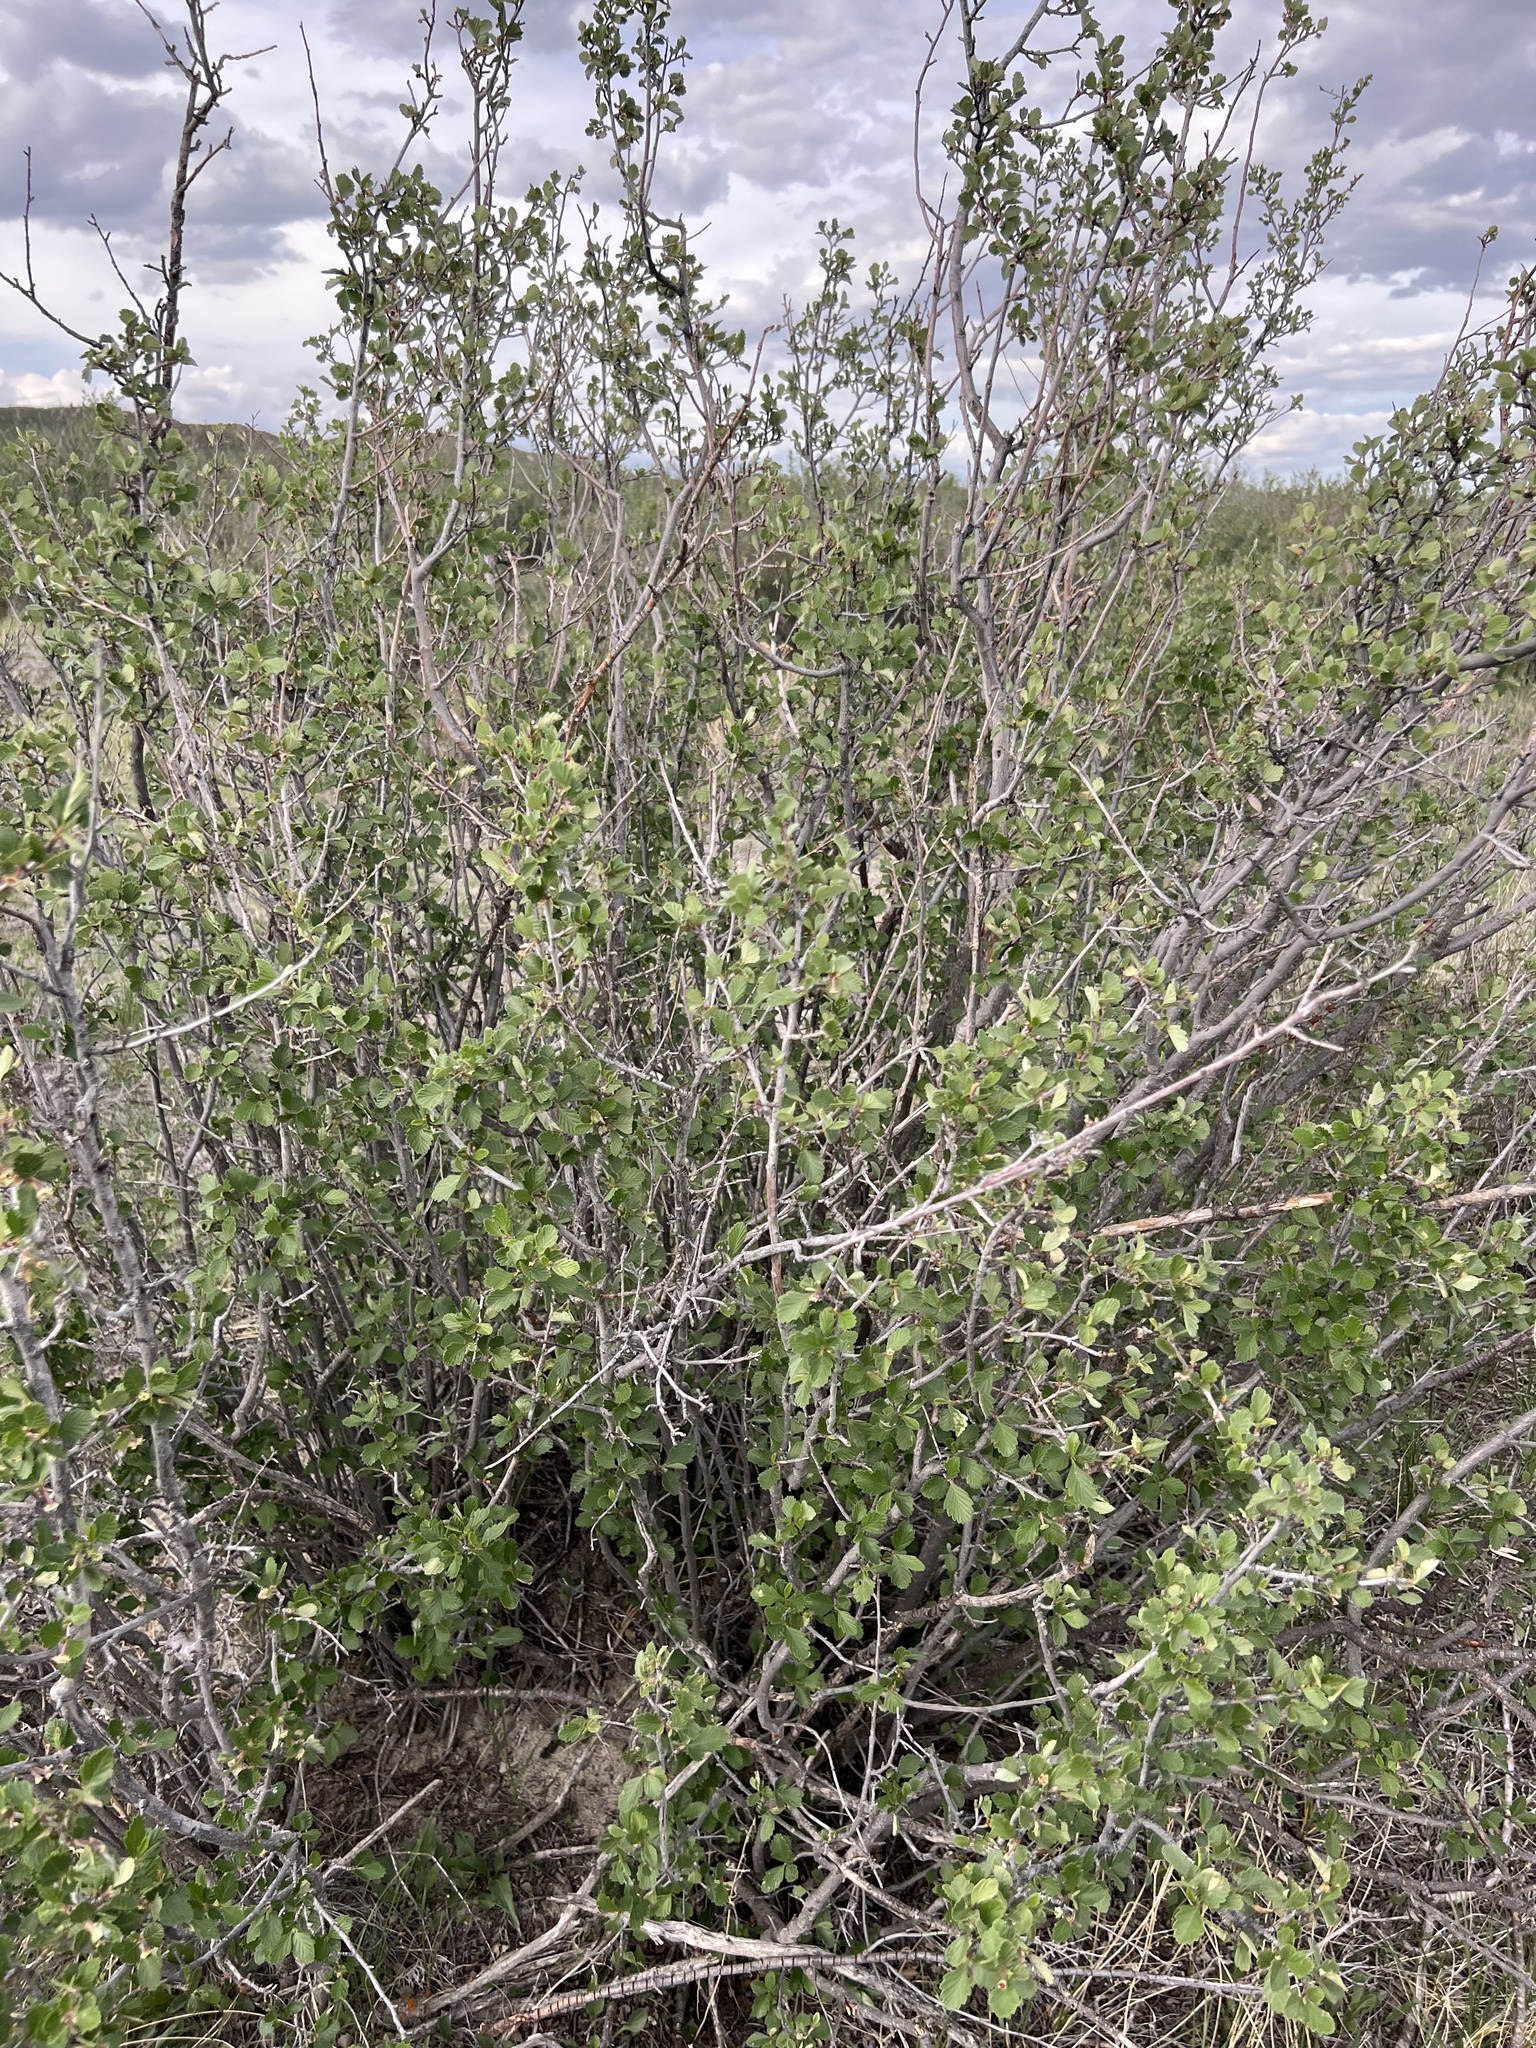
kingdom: Plantae
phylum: Tracheophyta
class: Magnoliopsida
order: Rosales
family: Rosaceae
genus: Cercocarpus
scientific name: Cercocarpus montanus
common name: Alder-leaf cercocarpus
